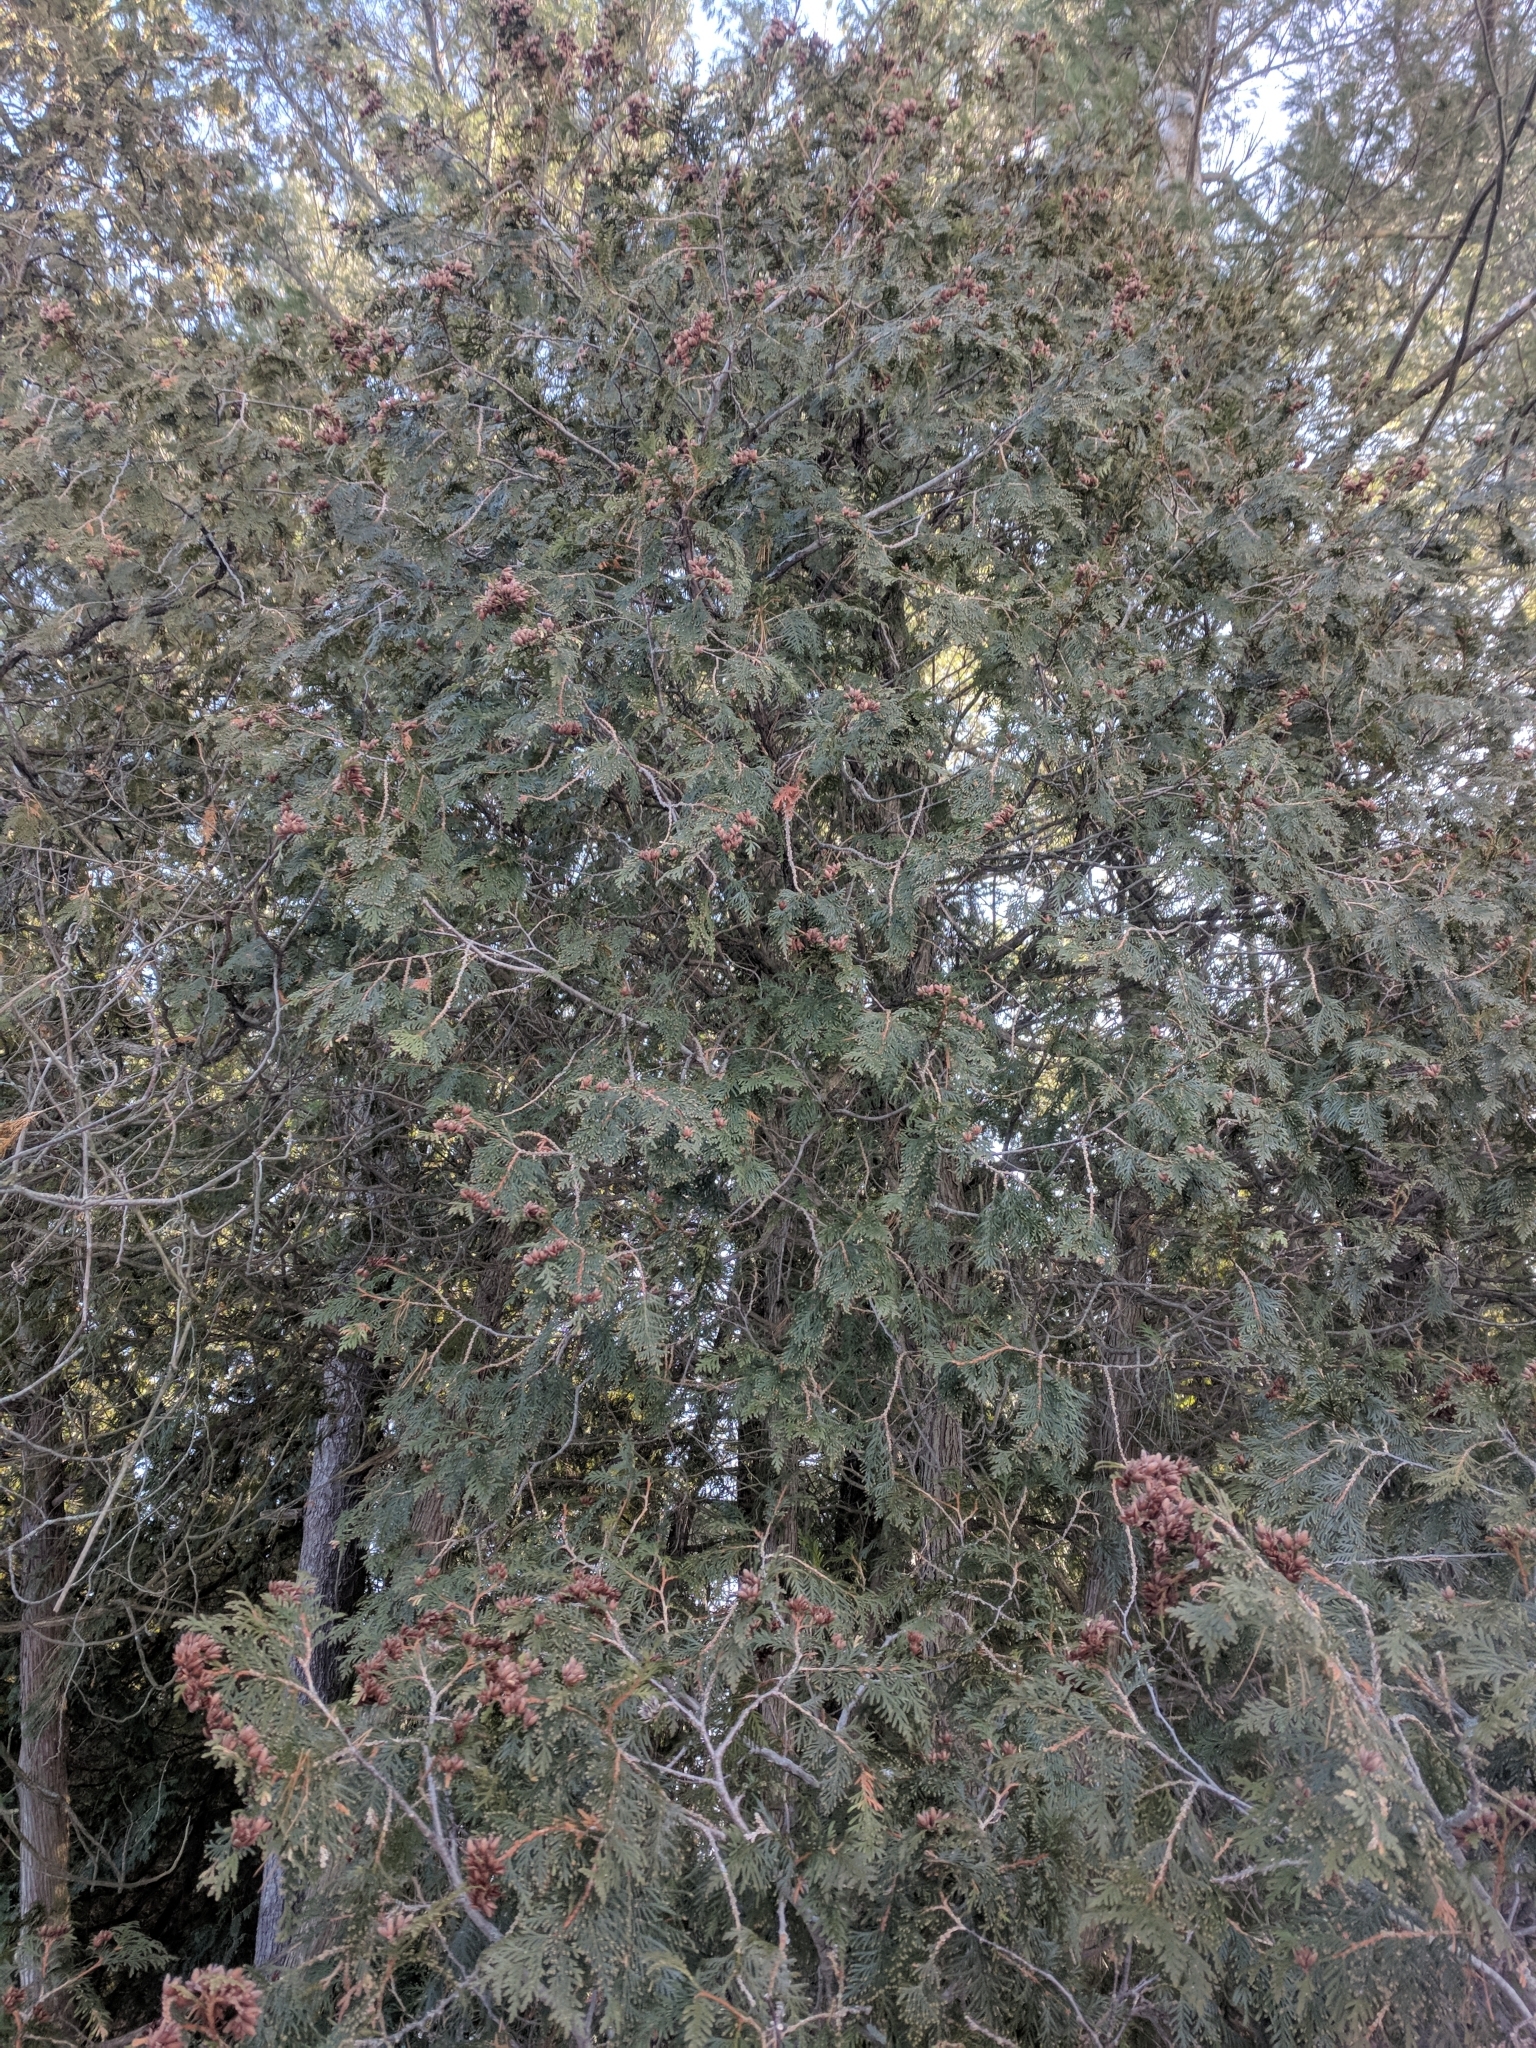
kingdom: Plantae
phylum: Tracheophyta
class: Pinopsida
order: Pinales
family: Cupressaceae
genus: Thuja
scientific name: Thuja occidentalis
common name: Northern white-cedar
